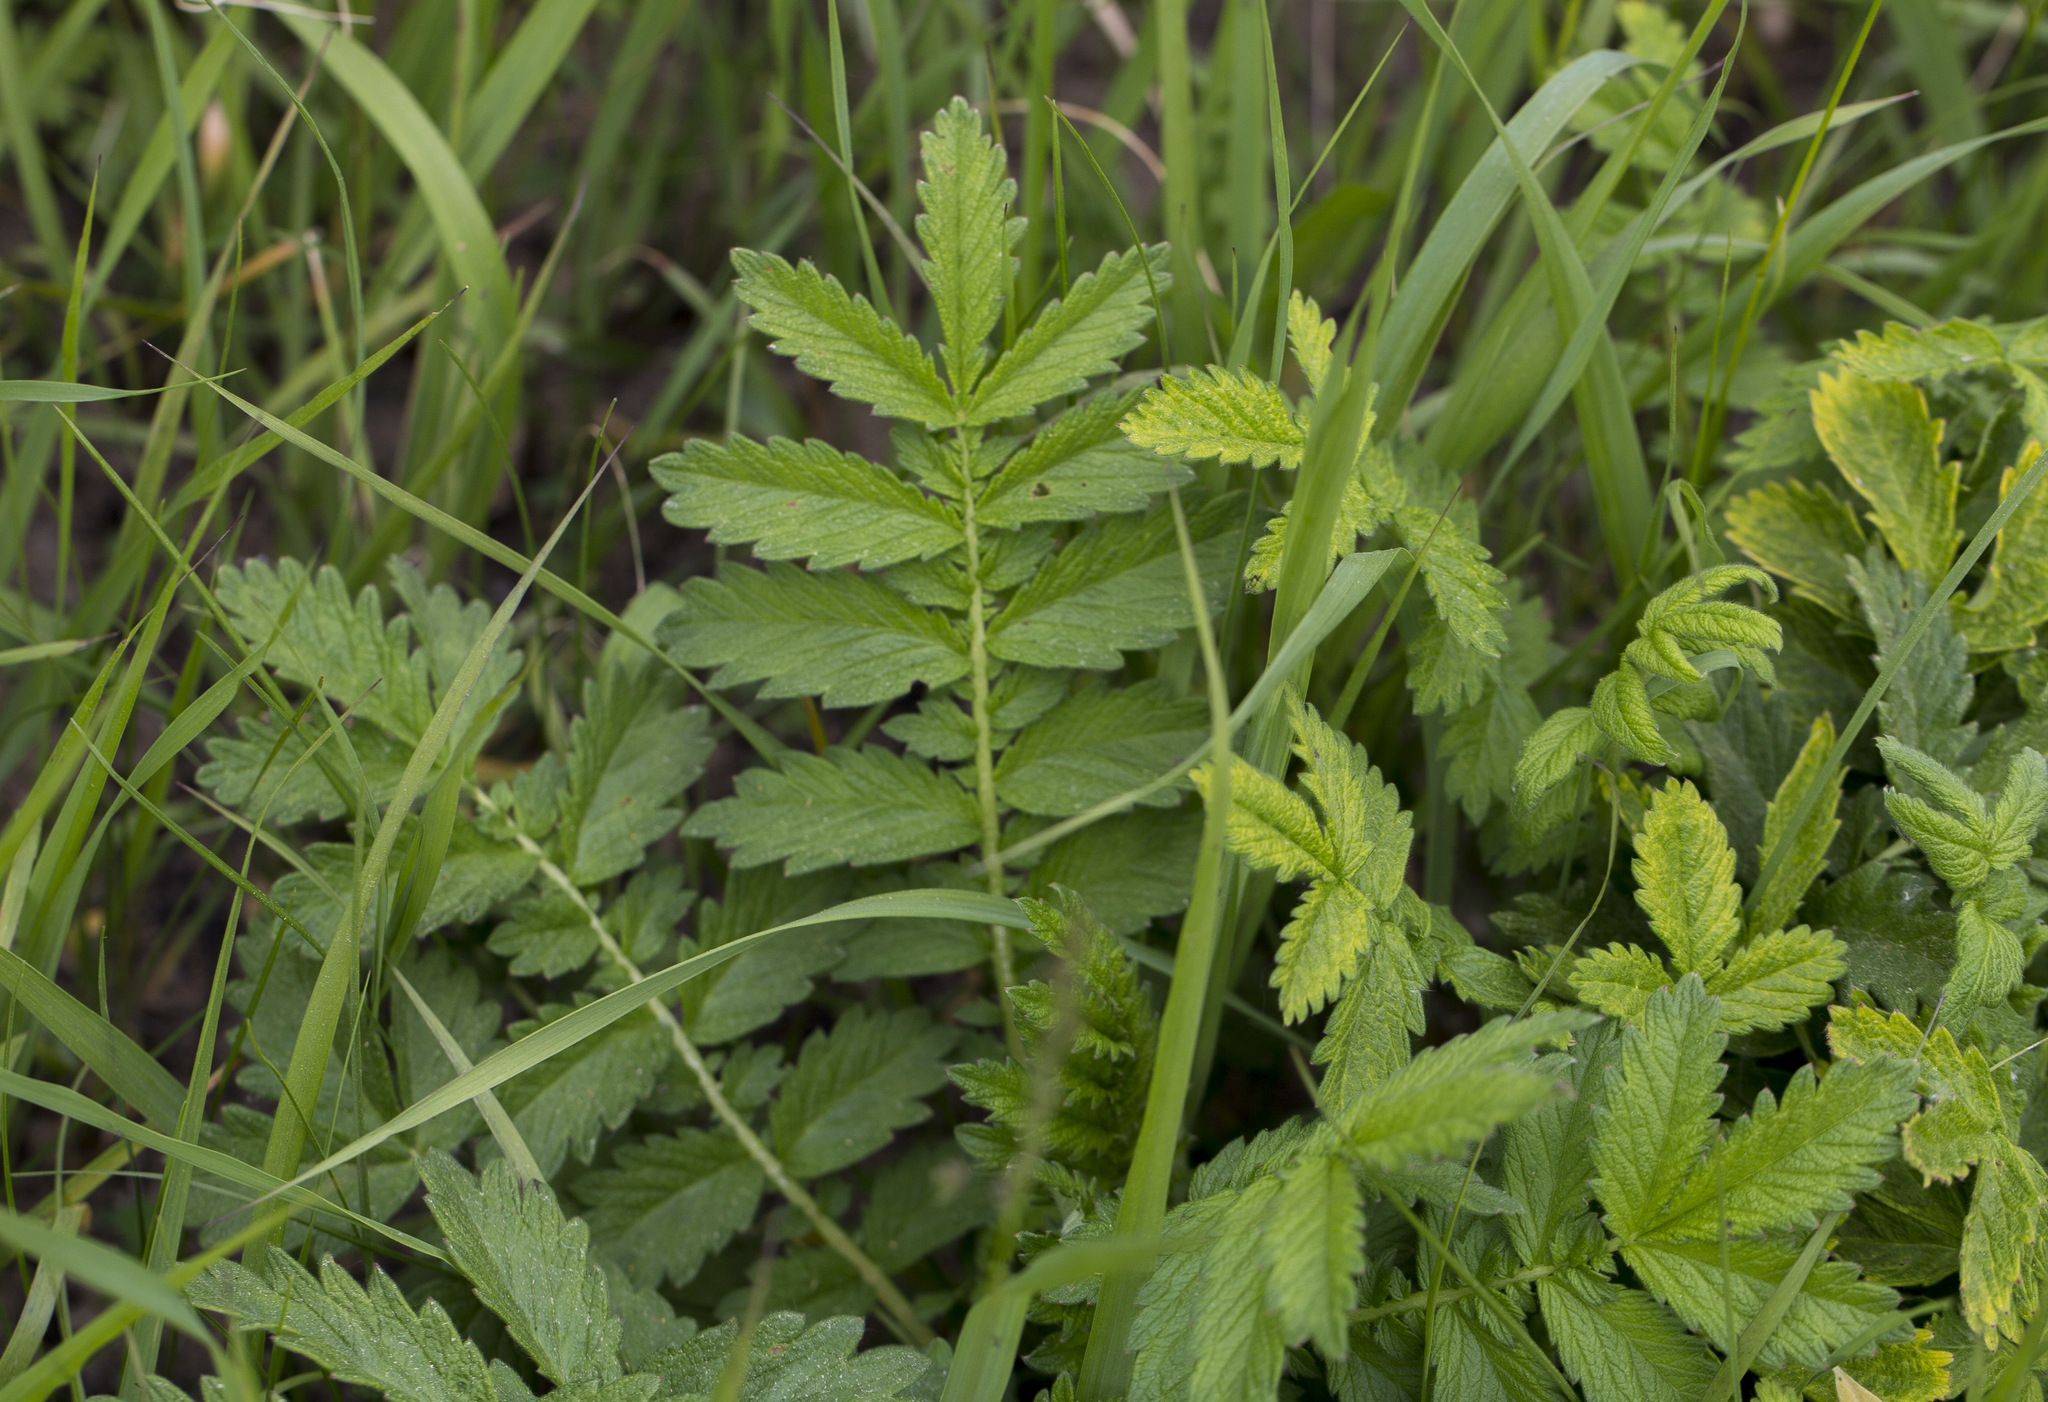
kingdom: Plantae
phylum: Tracheophyta
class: Magnoliopsida
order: Rosales
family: Rosaceae
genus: Agrimonia
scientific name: Agrimonia eupatoria
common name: Agrimony
